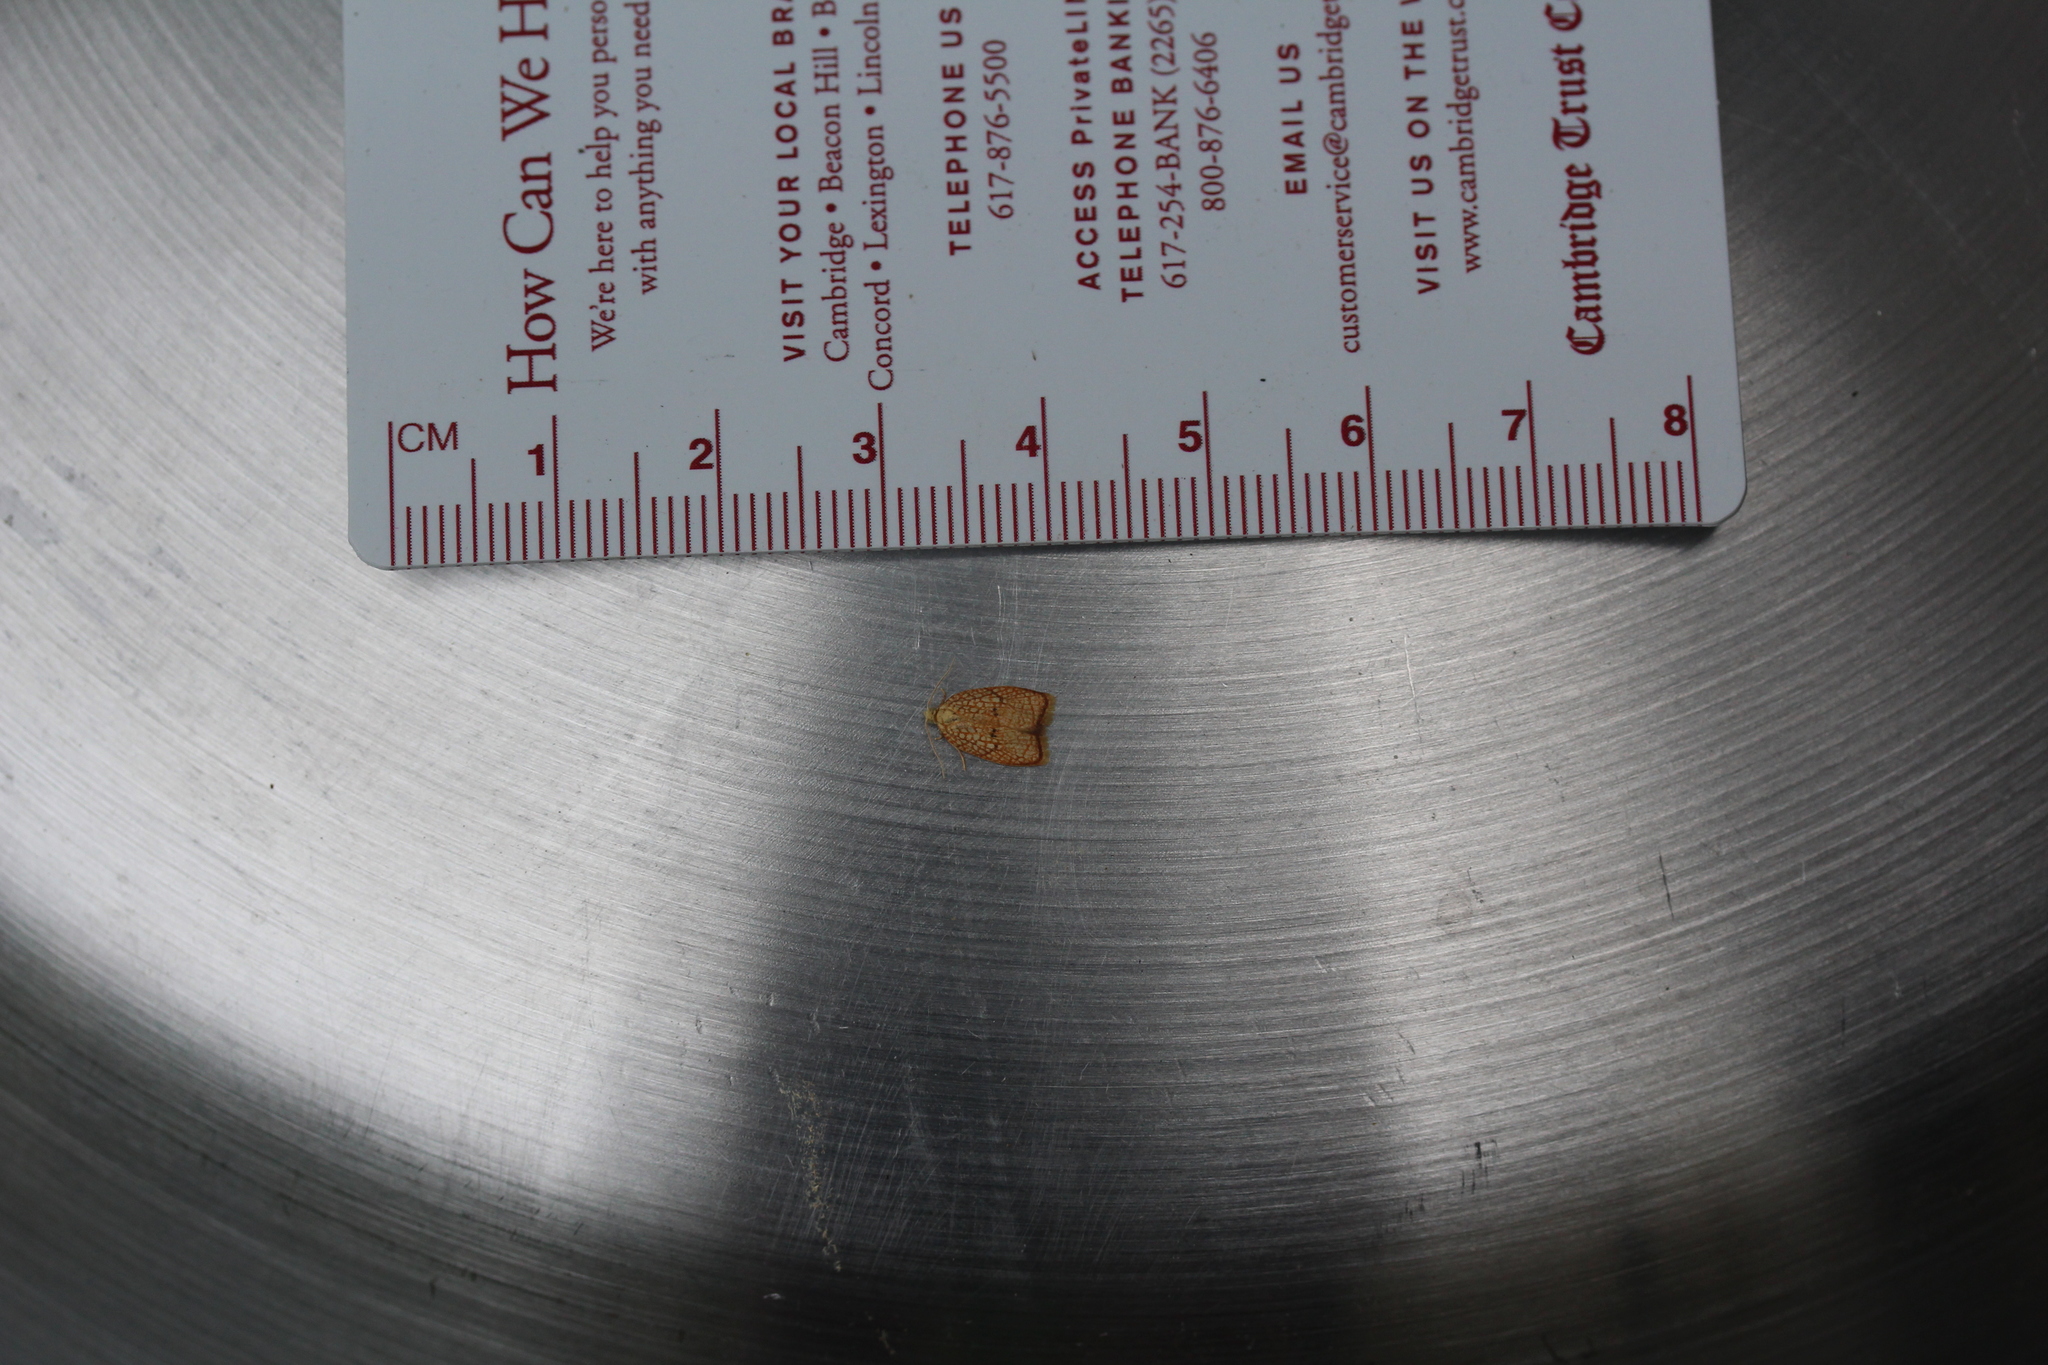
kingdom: Animalia
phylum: Arthropoda
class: Insecta
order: Lepidoptera
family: Tortricidae
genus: Acleris
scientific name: Acleris forsskaleana
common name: Maple button
